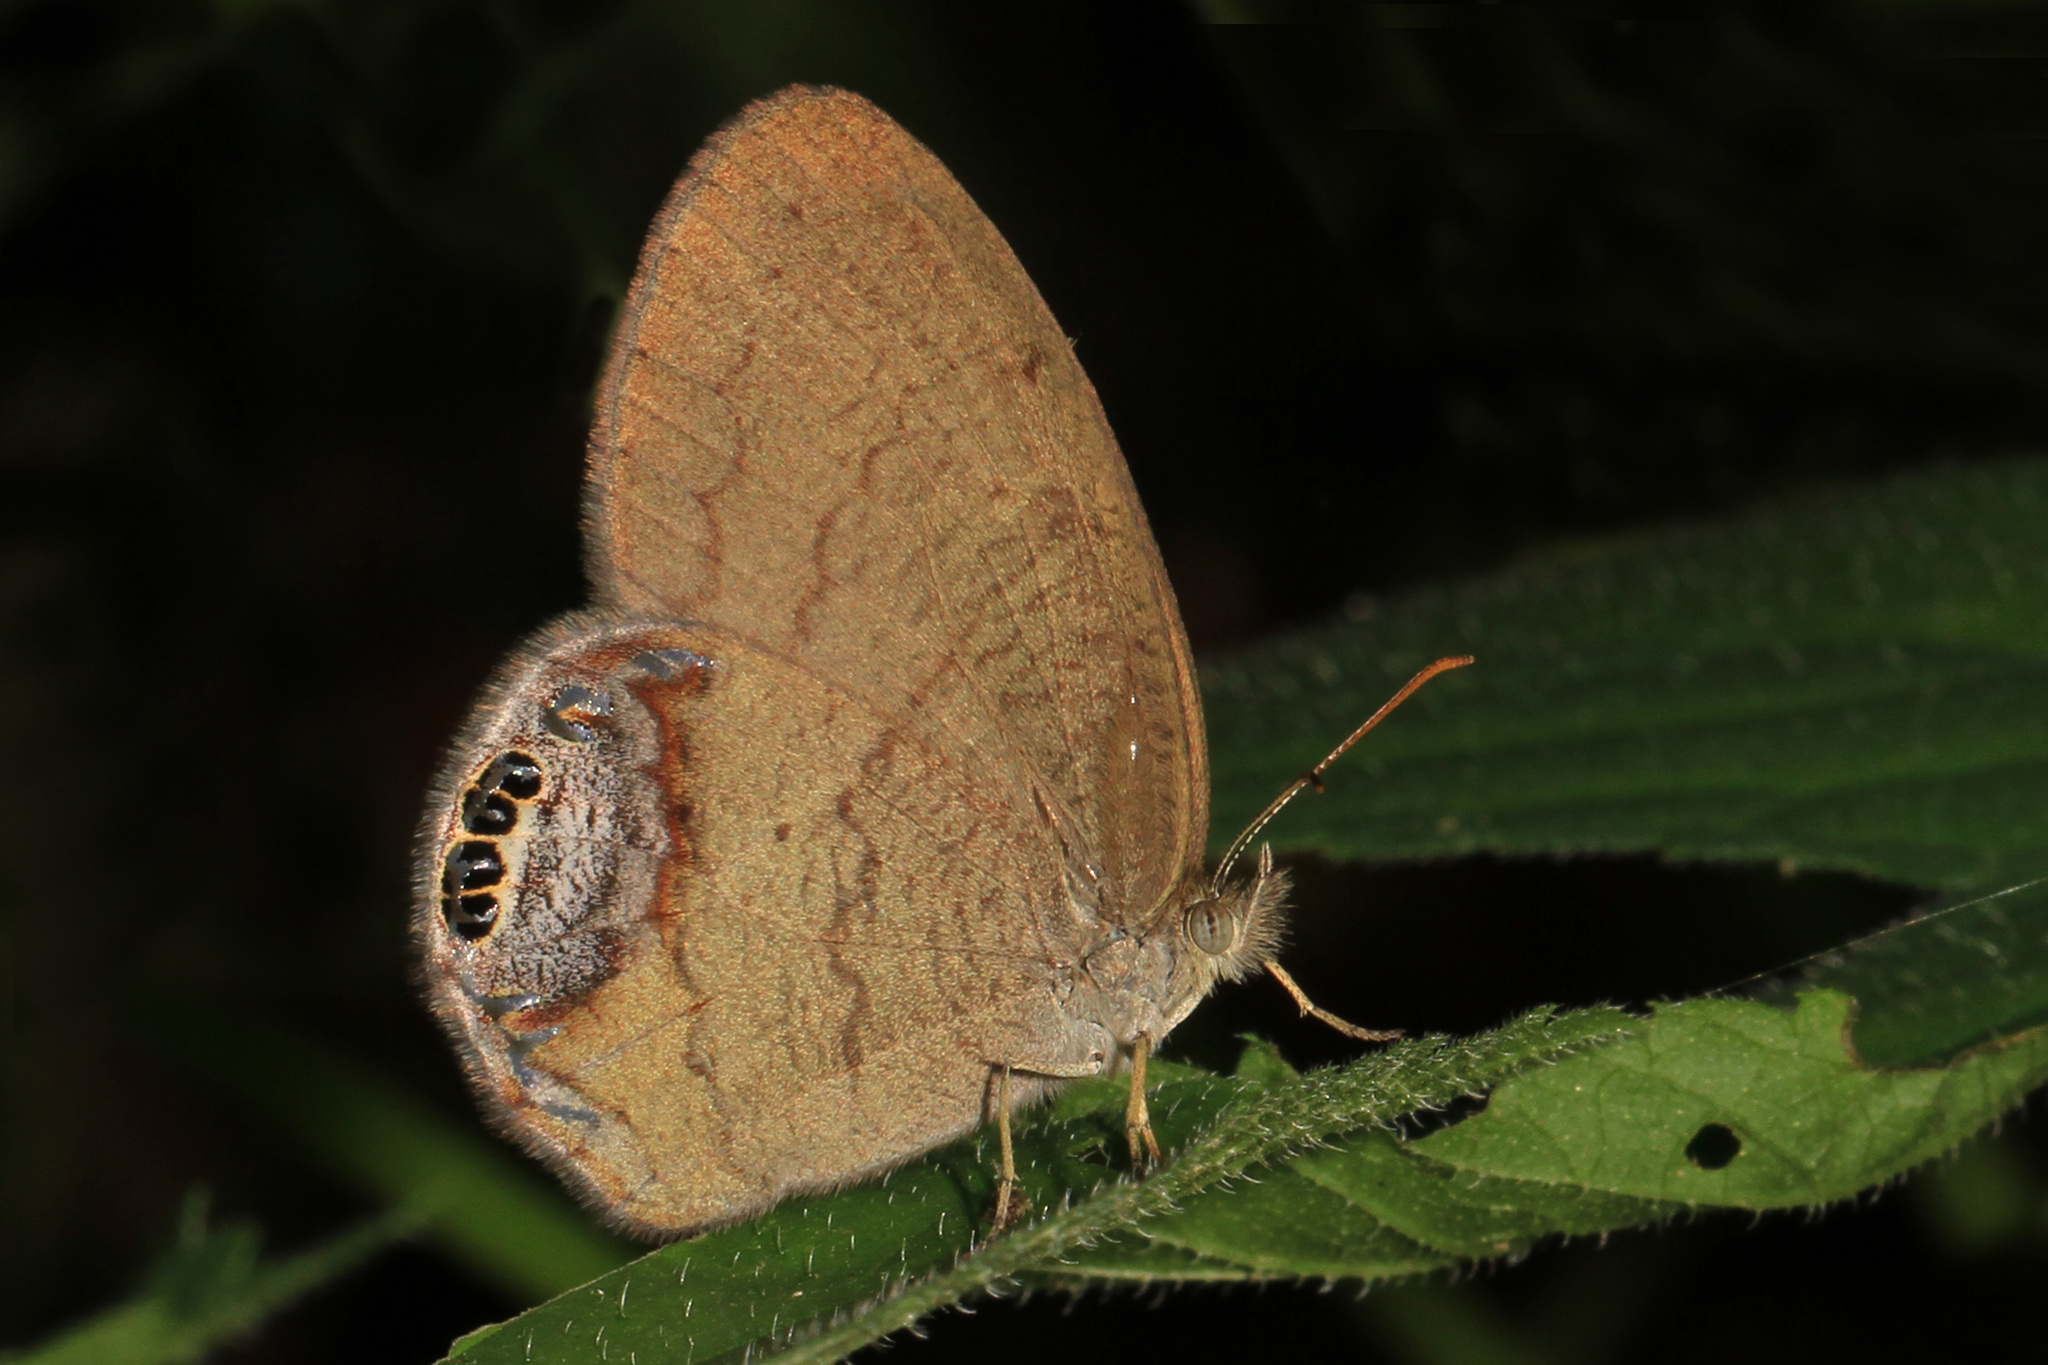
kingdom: Animalia
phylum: Arthropoda
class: Insecta
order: Lepidoptera
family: Nymphalidae
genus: Euptychia
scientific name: Euptychia cornelius
